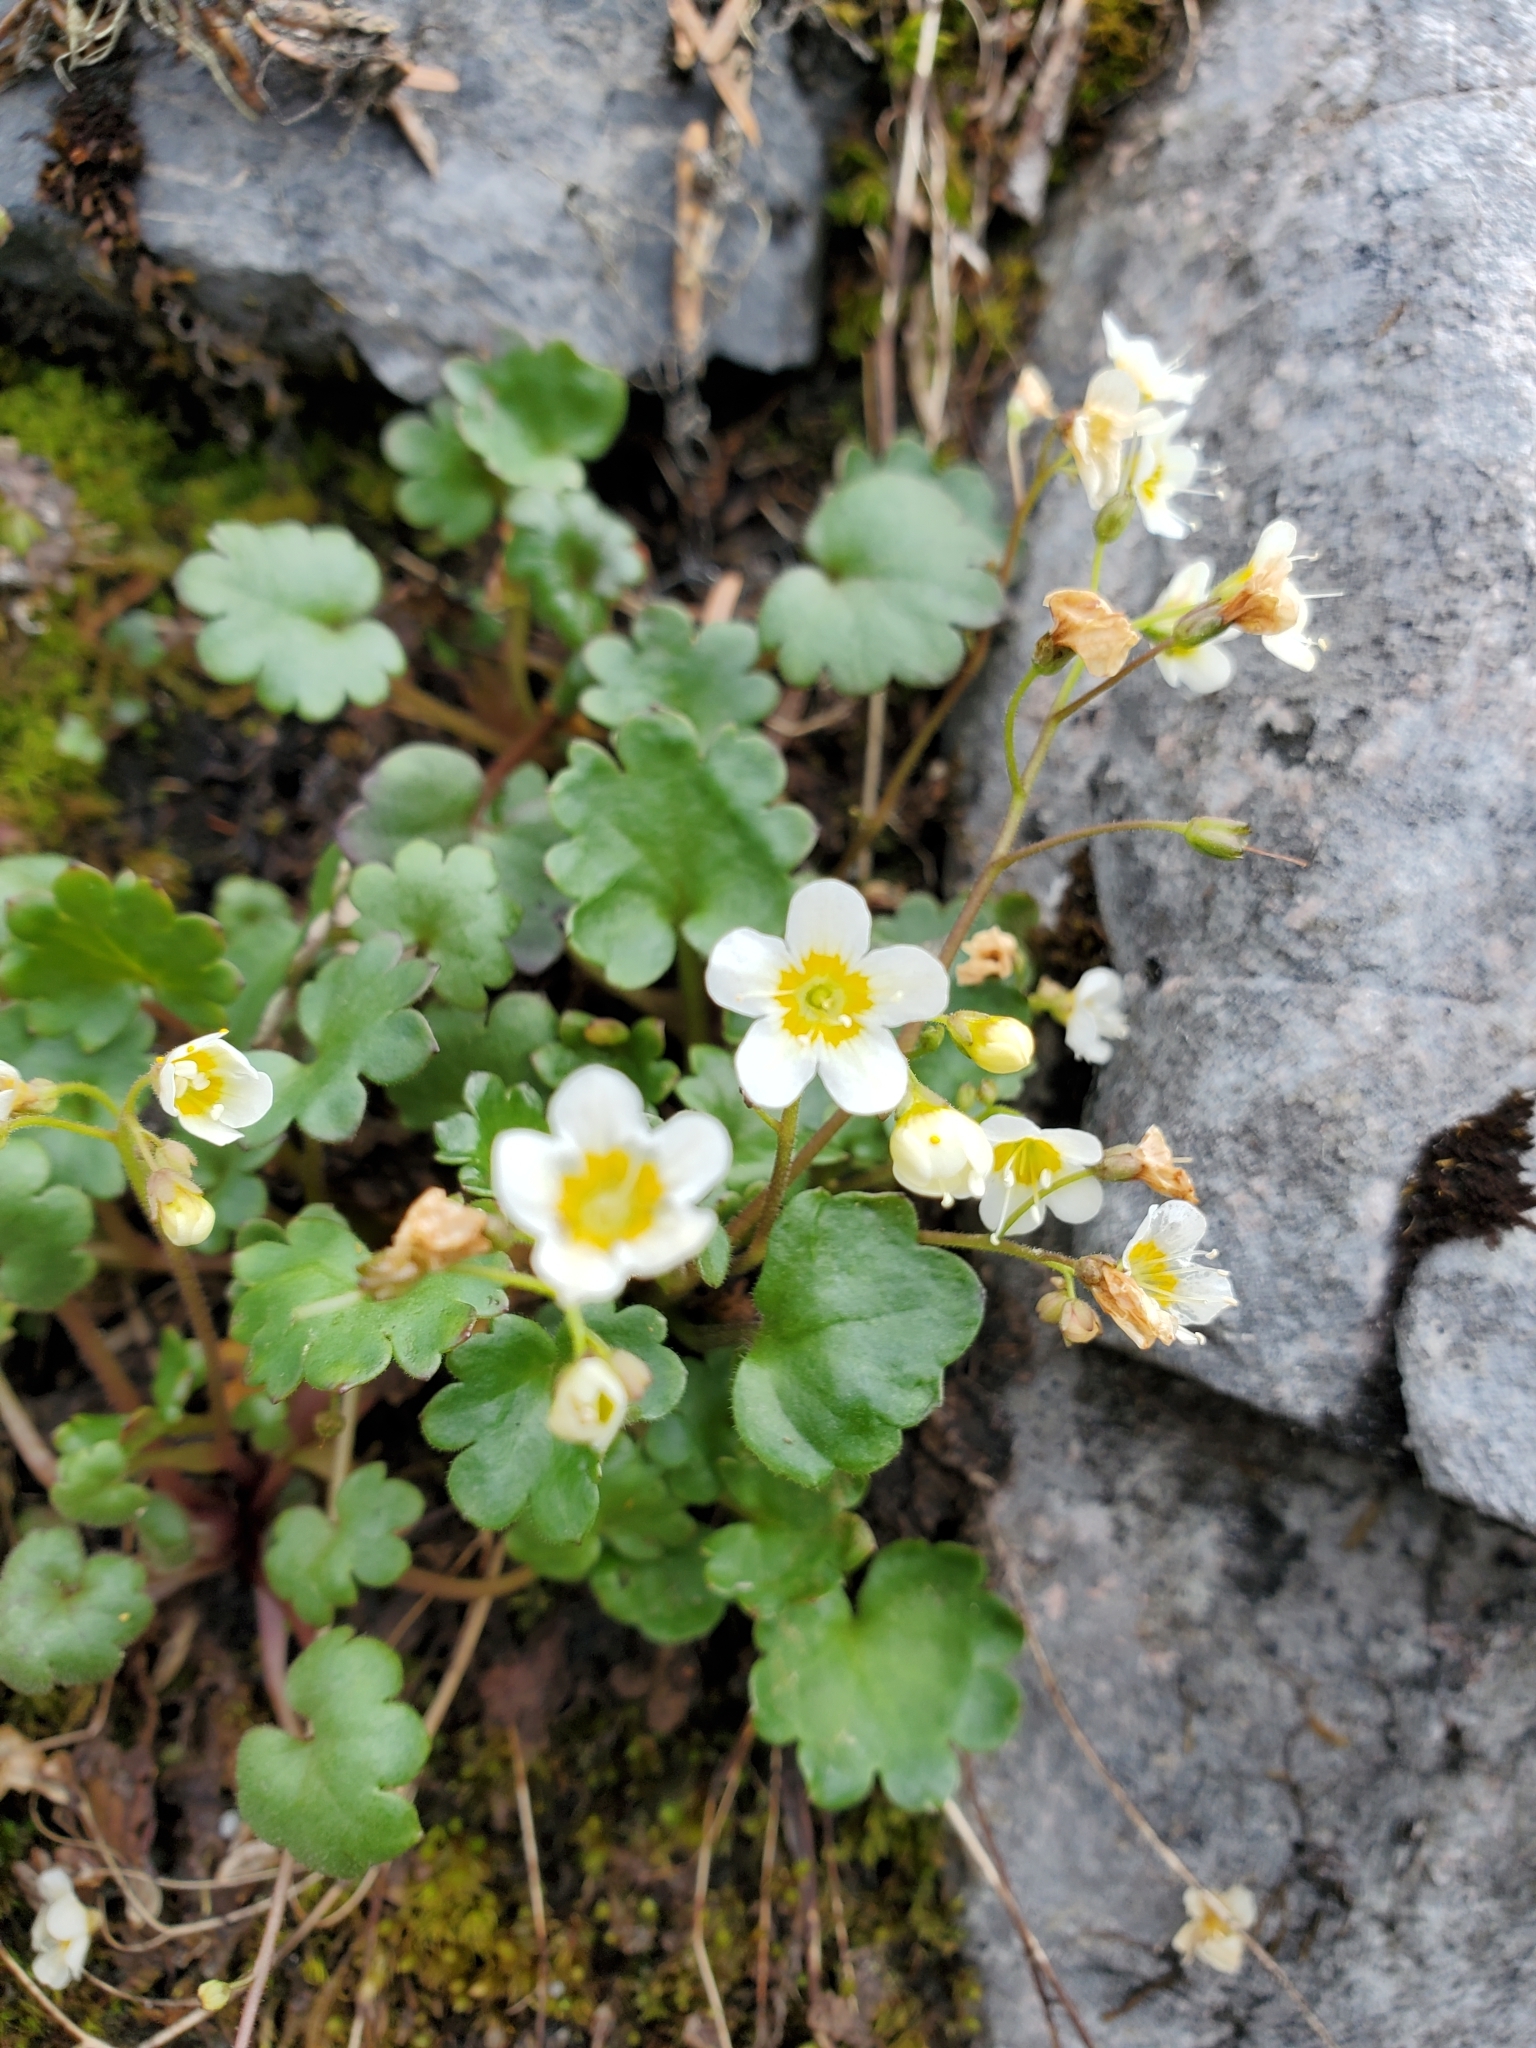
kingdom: Plantae
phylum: Tracheophyta
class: Magnoliopsida
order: Boraginales
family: Hydrophyllaceae
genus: Romanzoffia
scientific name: Romanzoffia sitchensis
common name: Sitka mistmaid
